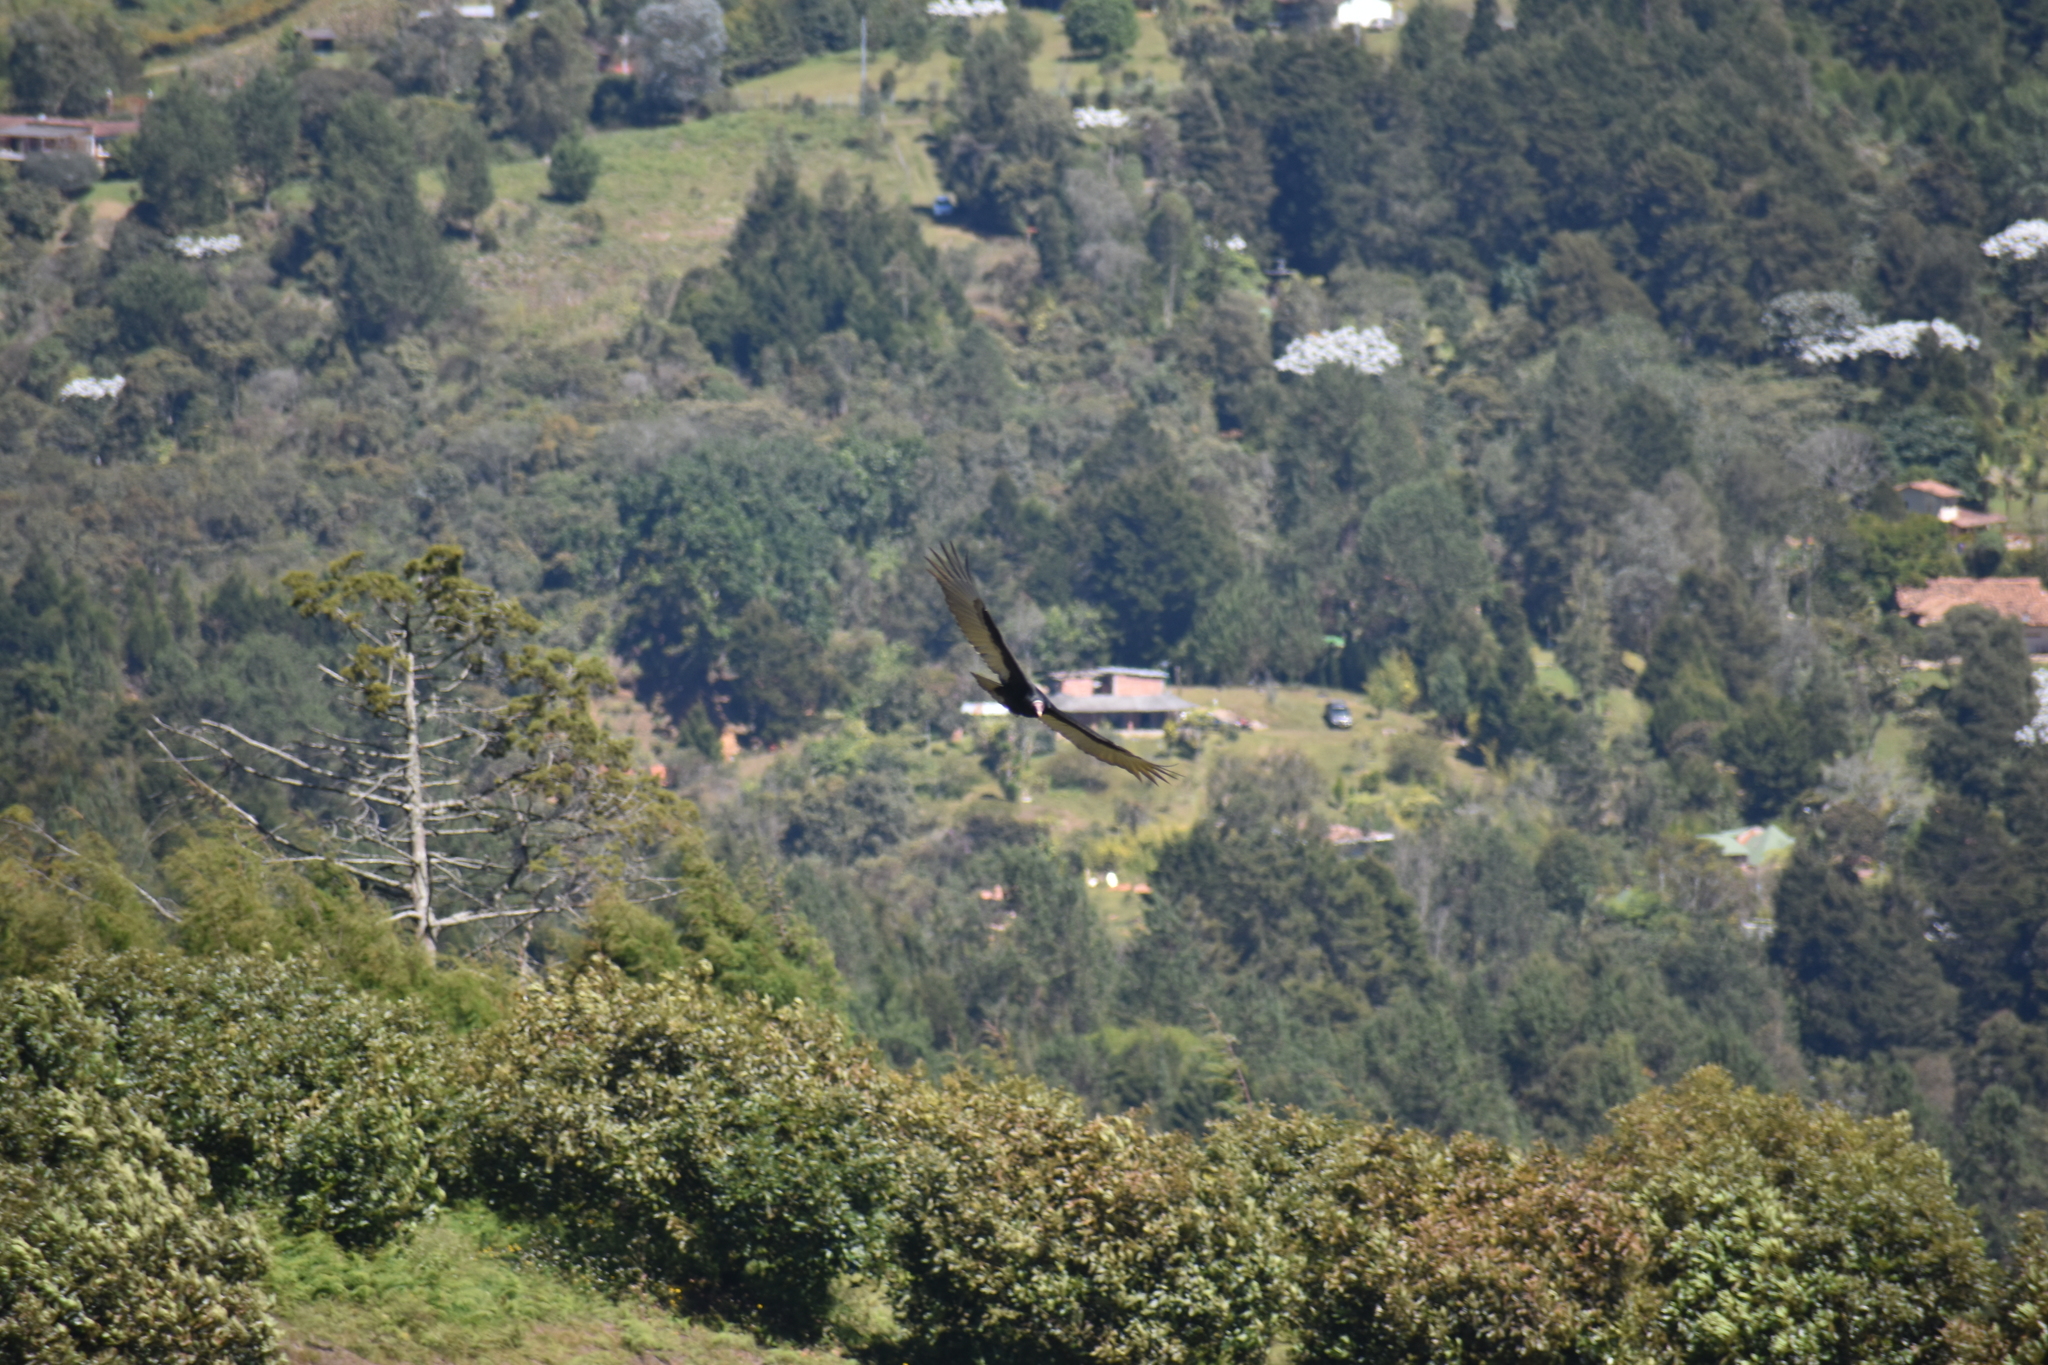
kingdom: Animalia
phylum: Chordata
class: Aves
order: Accipitriformes
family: Cathartidae
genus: Cathartes
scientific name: Cathartes aura
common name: Turkey vulture
